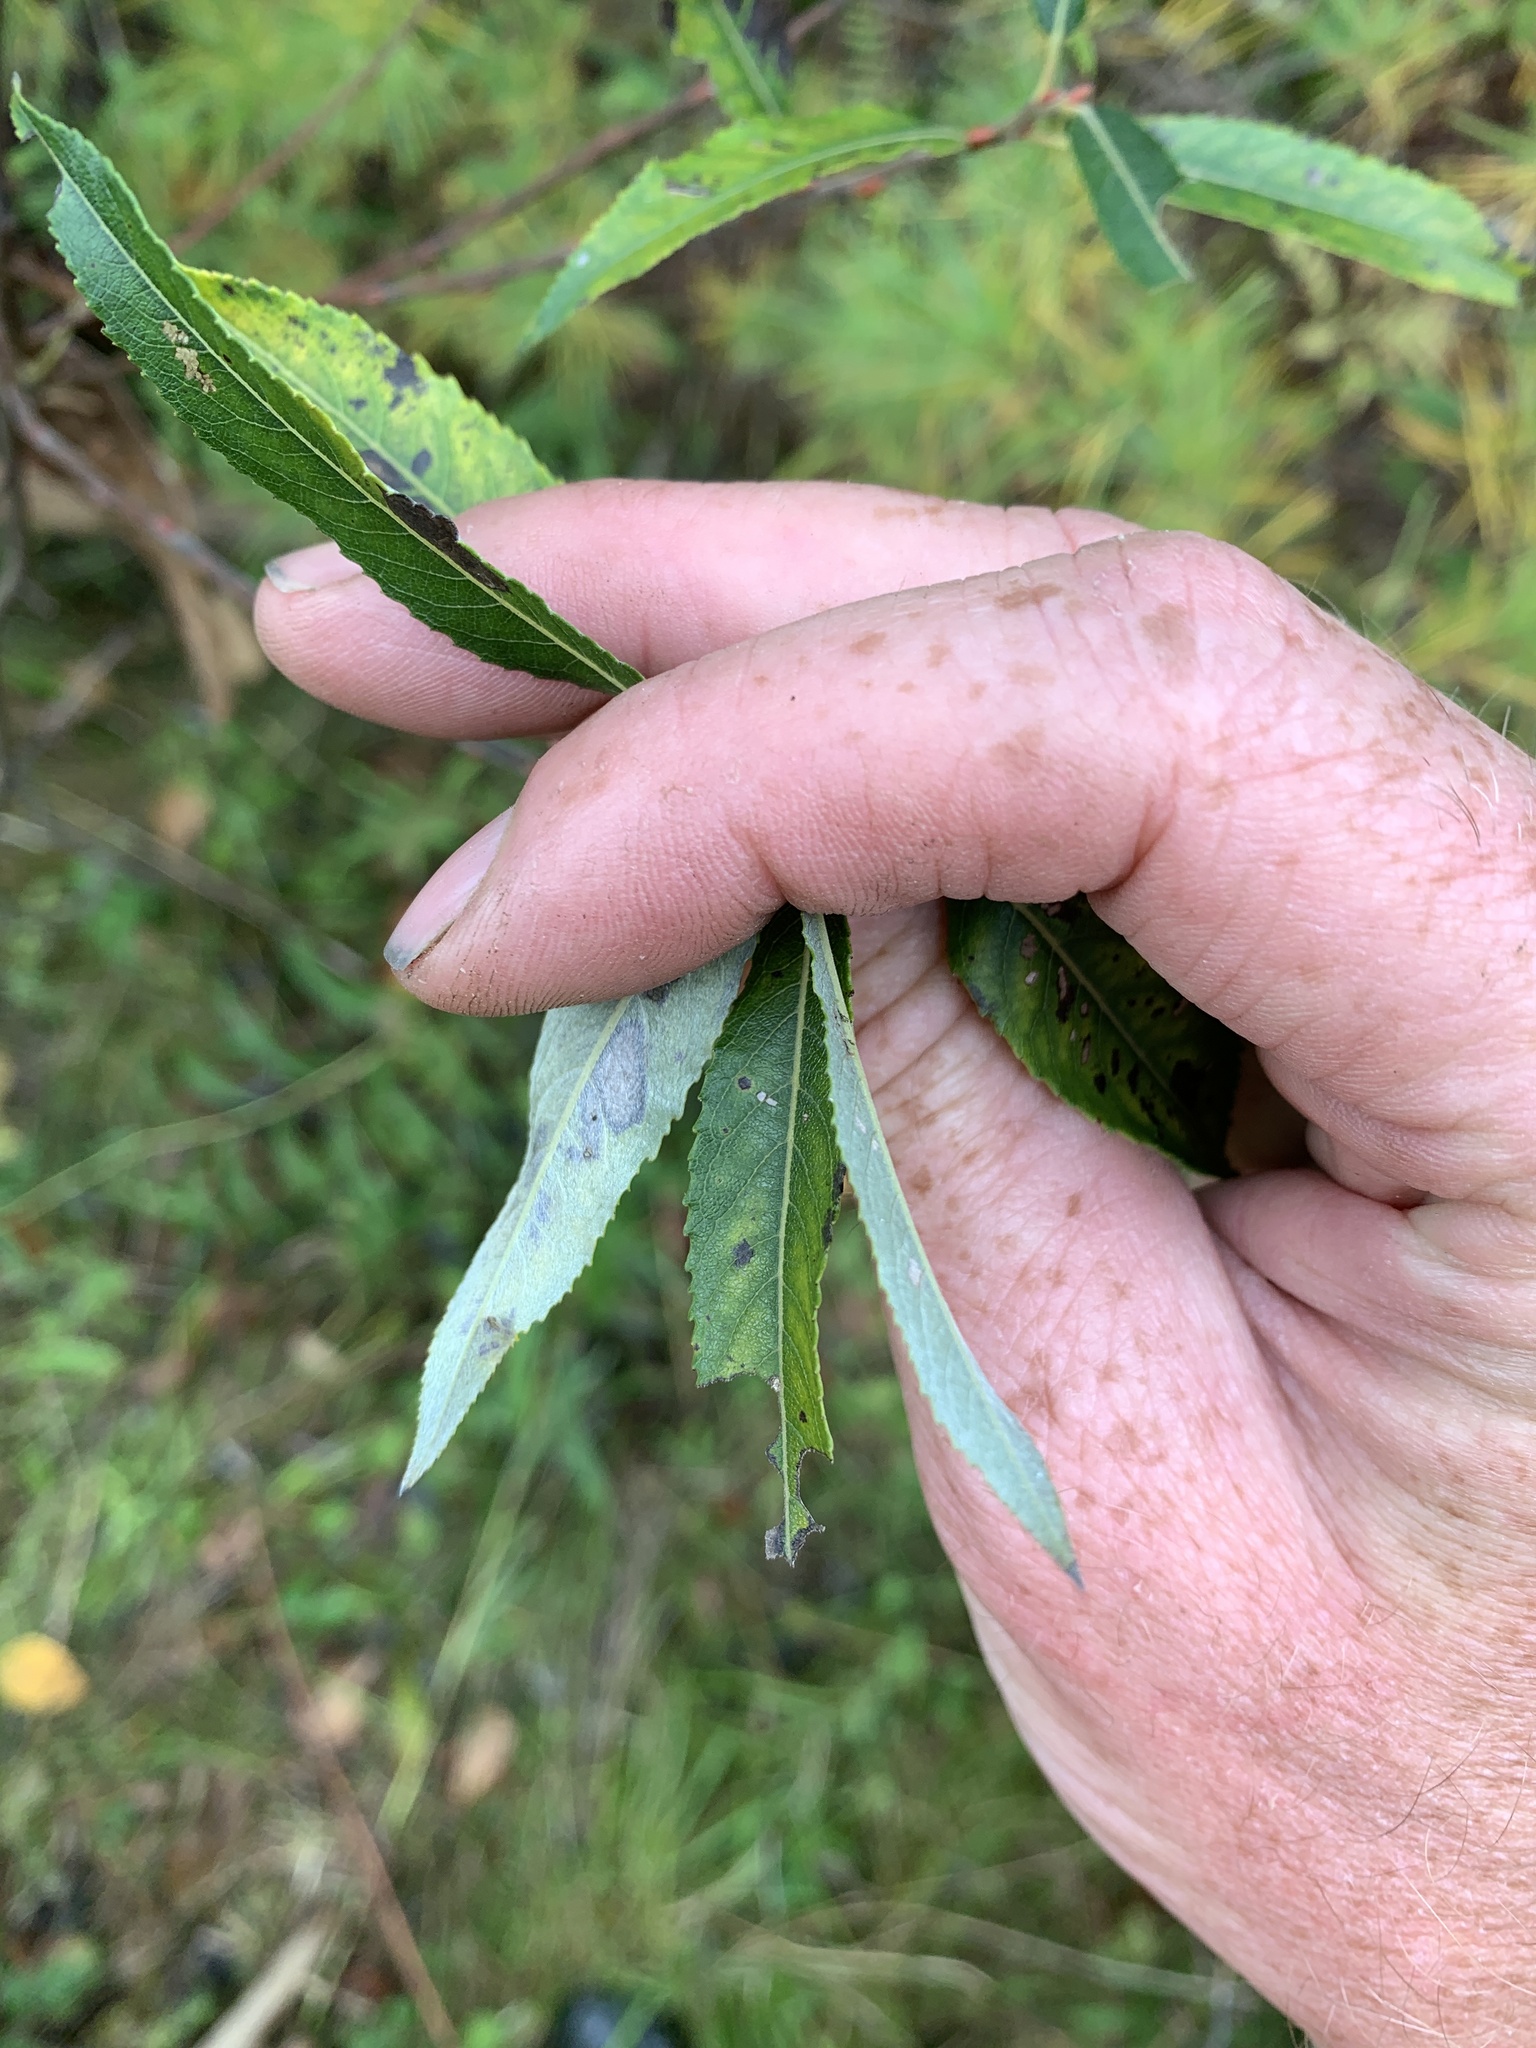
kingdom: Plantae
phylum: Tracheophyta
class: Magnoliopsida
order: Malpighiales
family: Salicaceae
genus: Salix
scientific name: Salix sericea
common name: Silky willow
